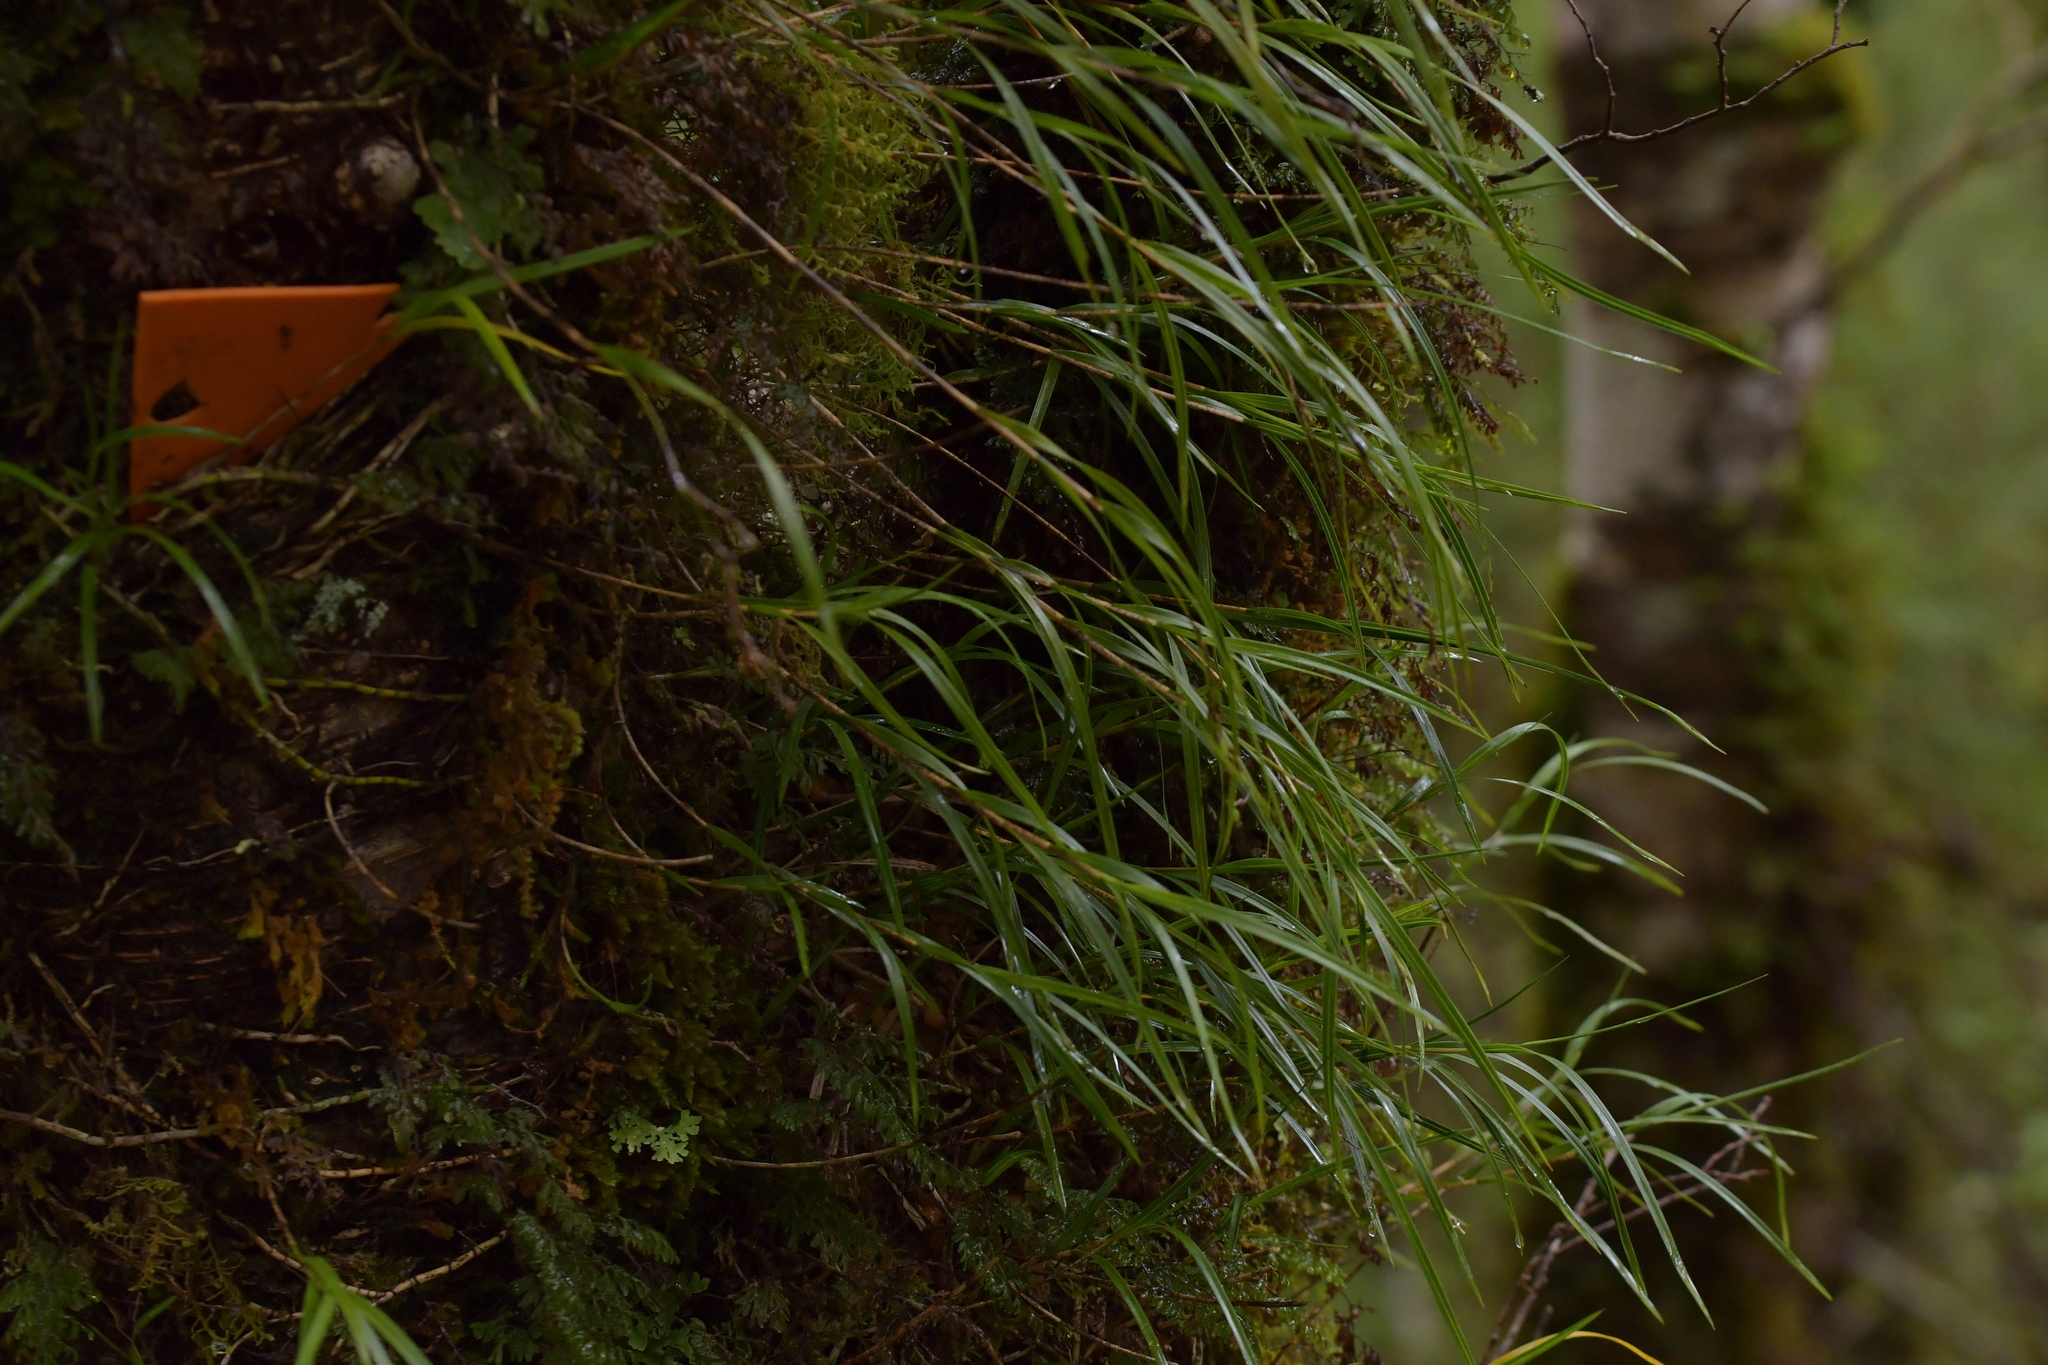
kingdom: Plantae
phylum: Tracheophyta
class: Liliopsida
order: Asparagales
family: Orchidaceae
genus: Earina
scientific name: Earina mucronata
